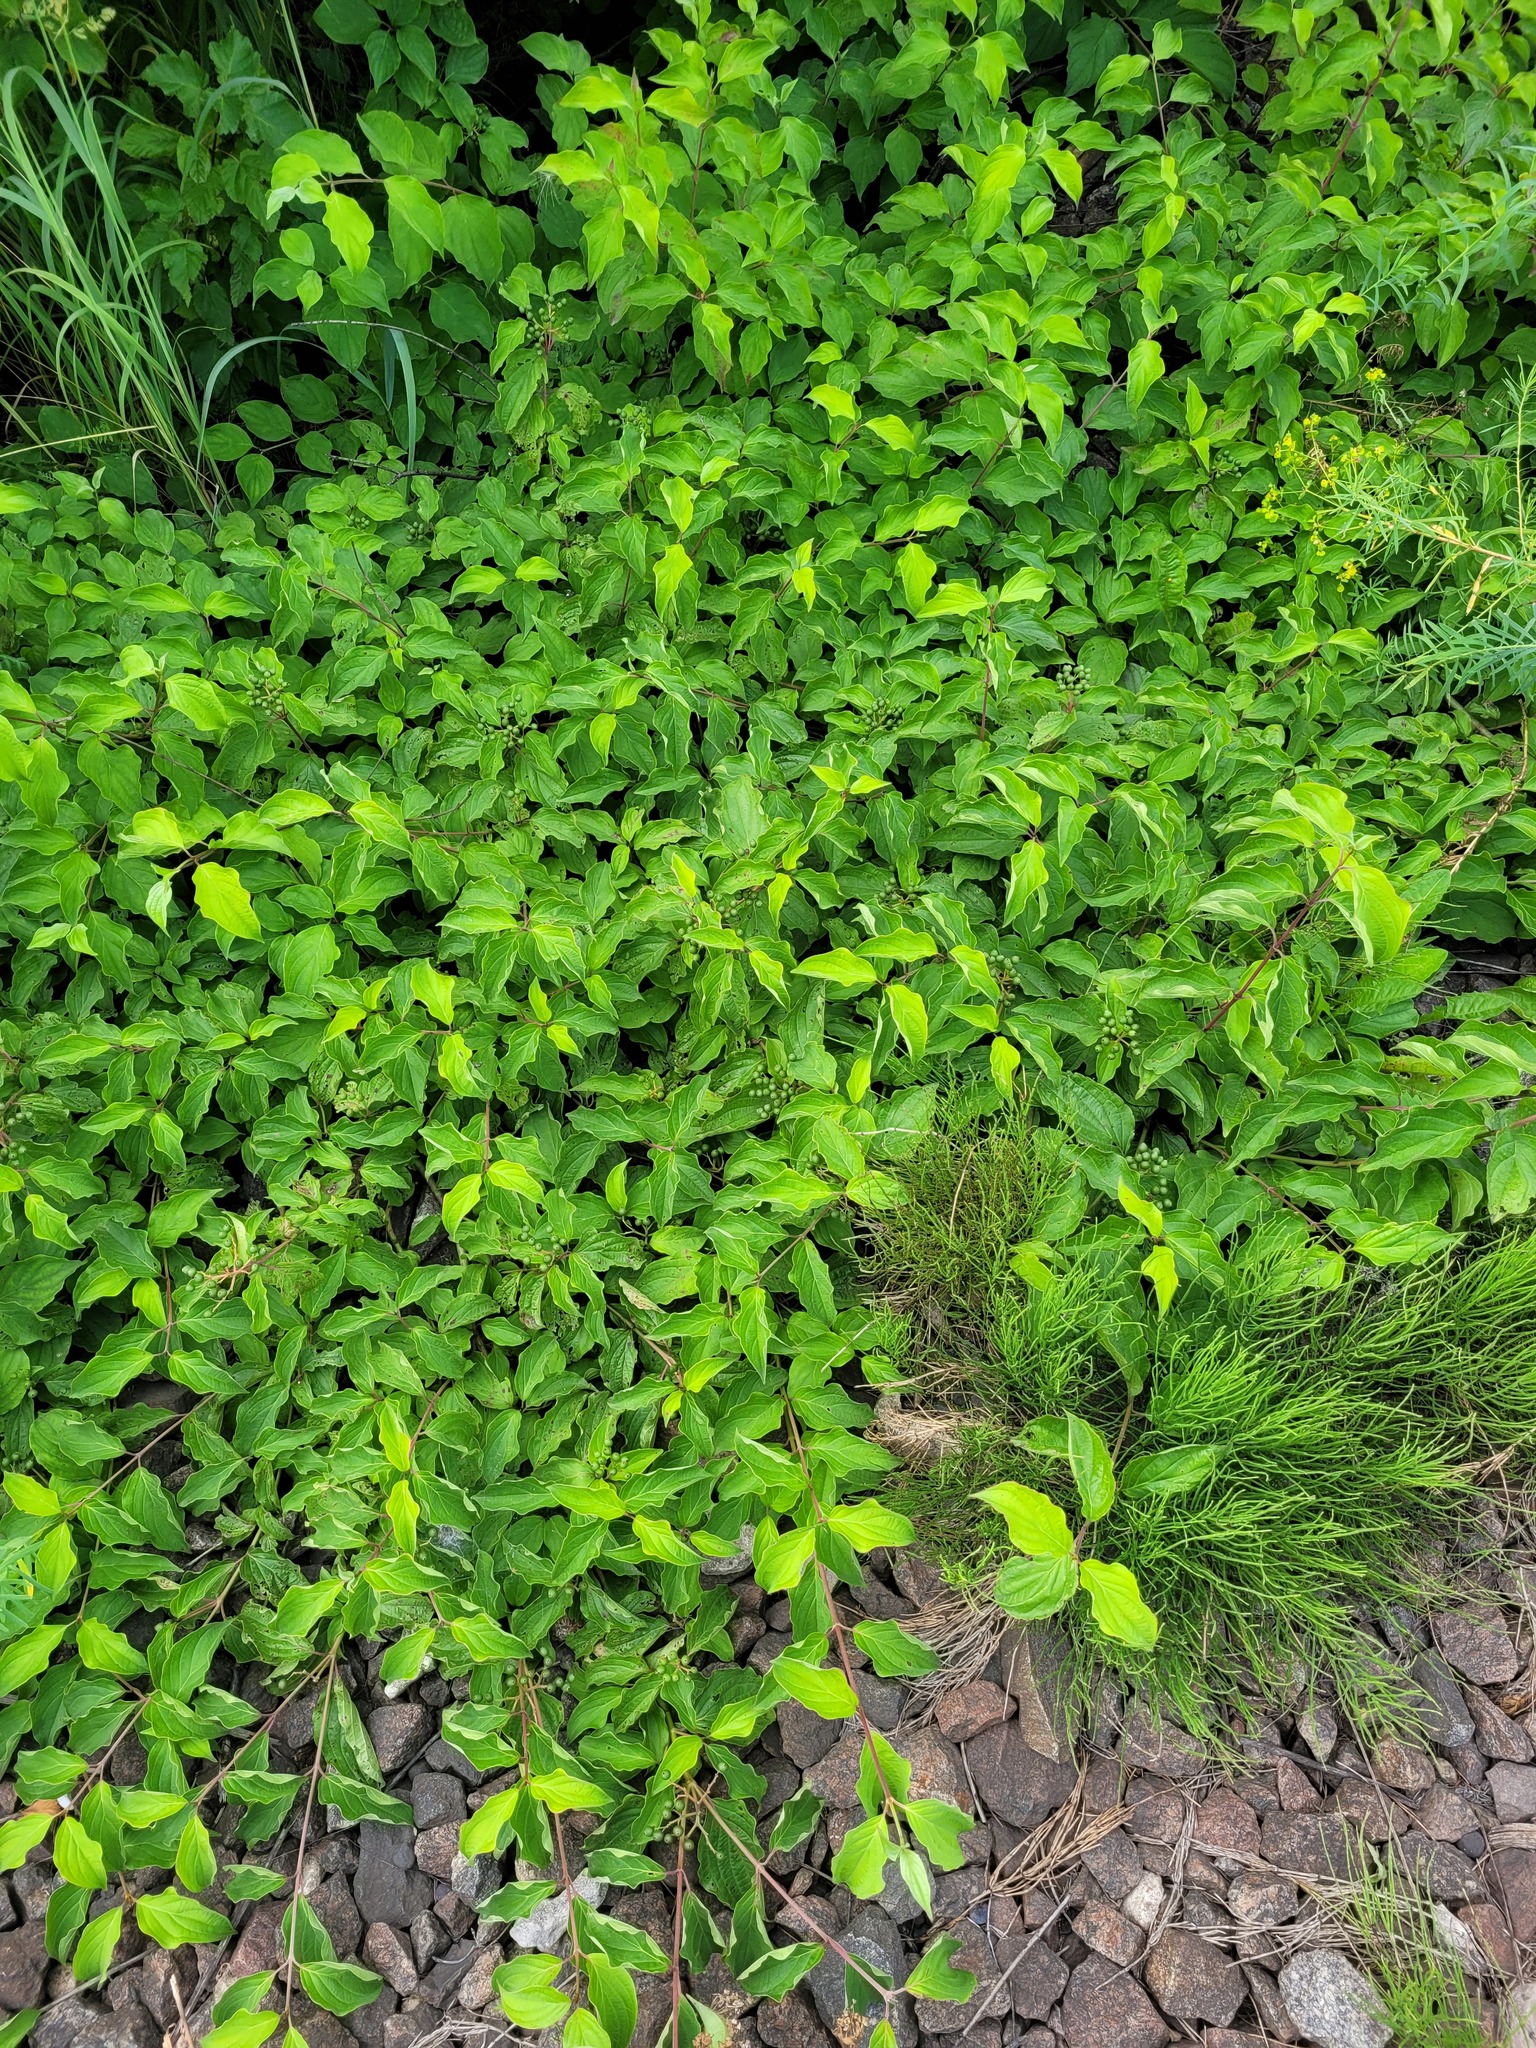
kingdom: Plantae
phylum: Tracheophyta
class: Magnoliopsida
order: Cornales
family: Cornaceae
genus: Cornus
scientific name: Cornus sanguinea
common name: Dogwood
